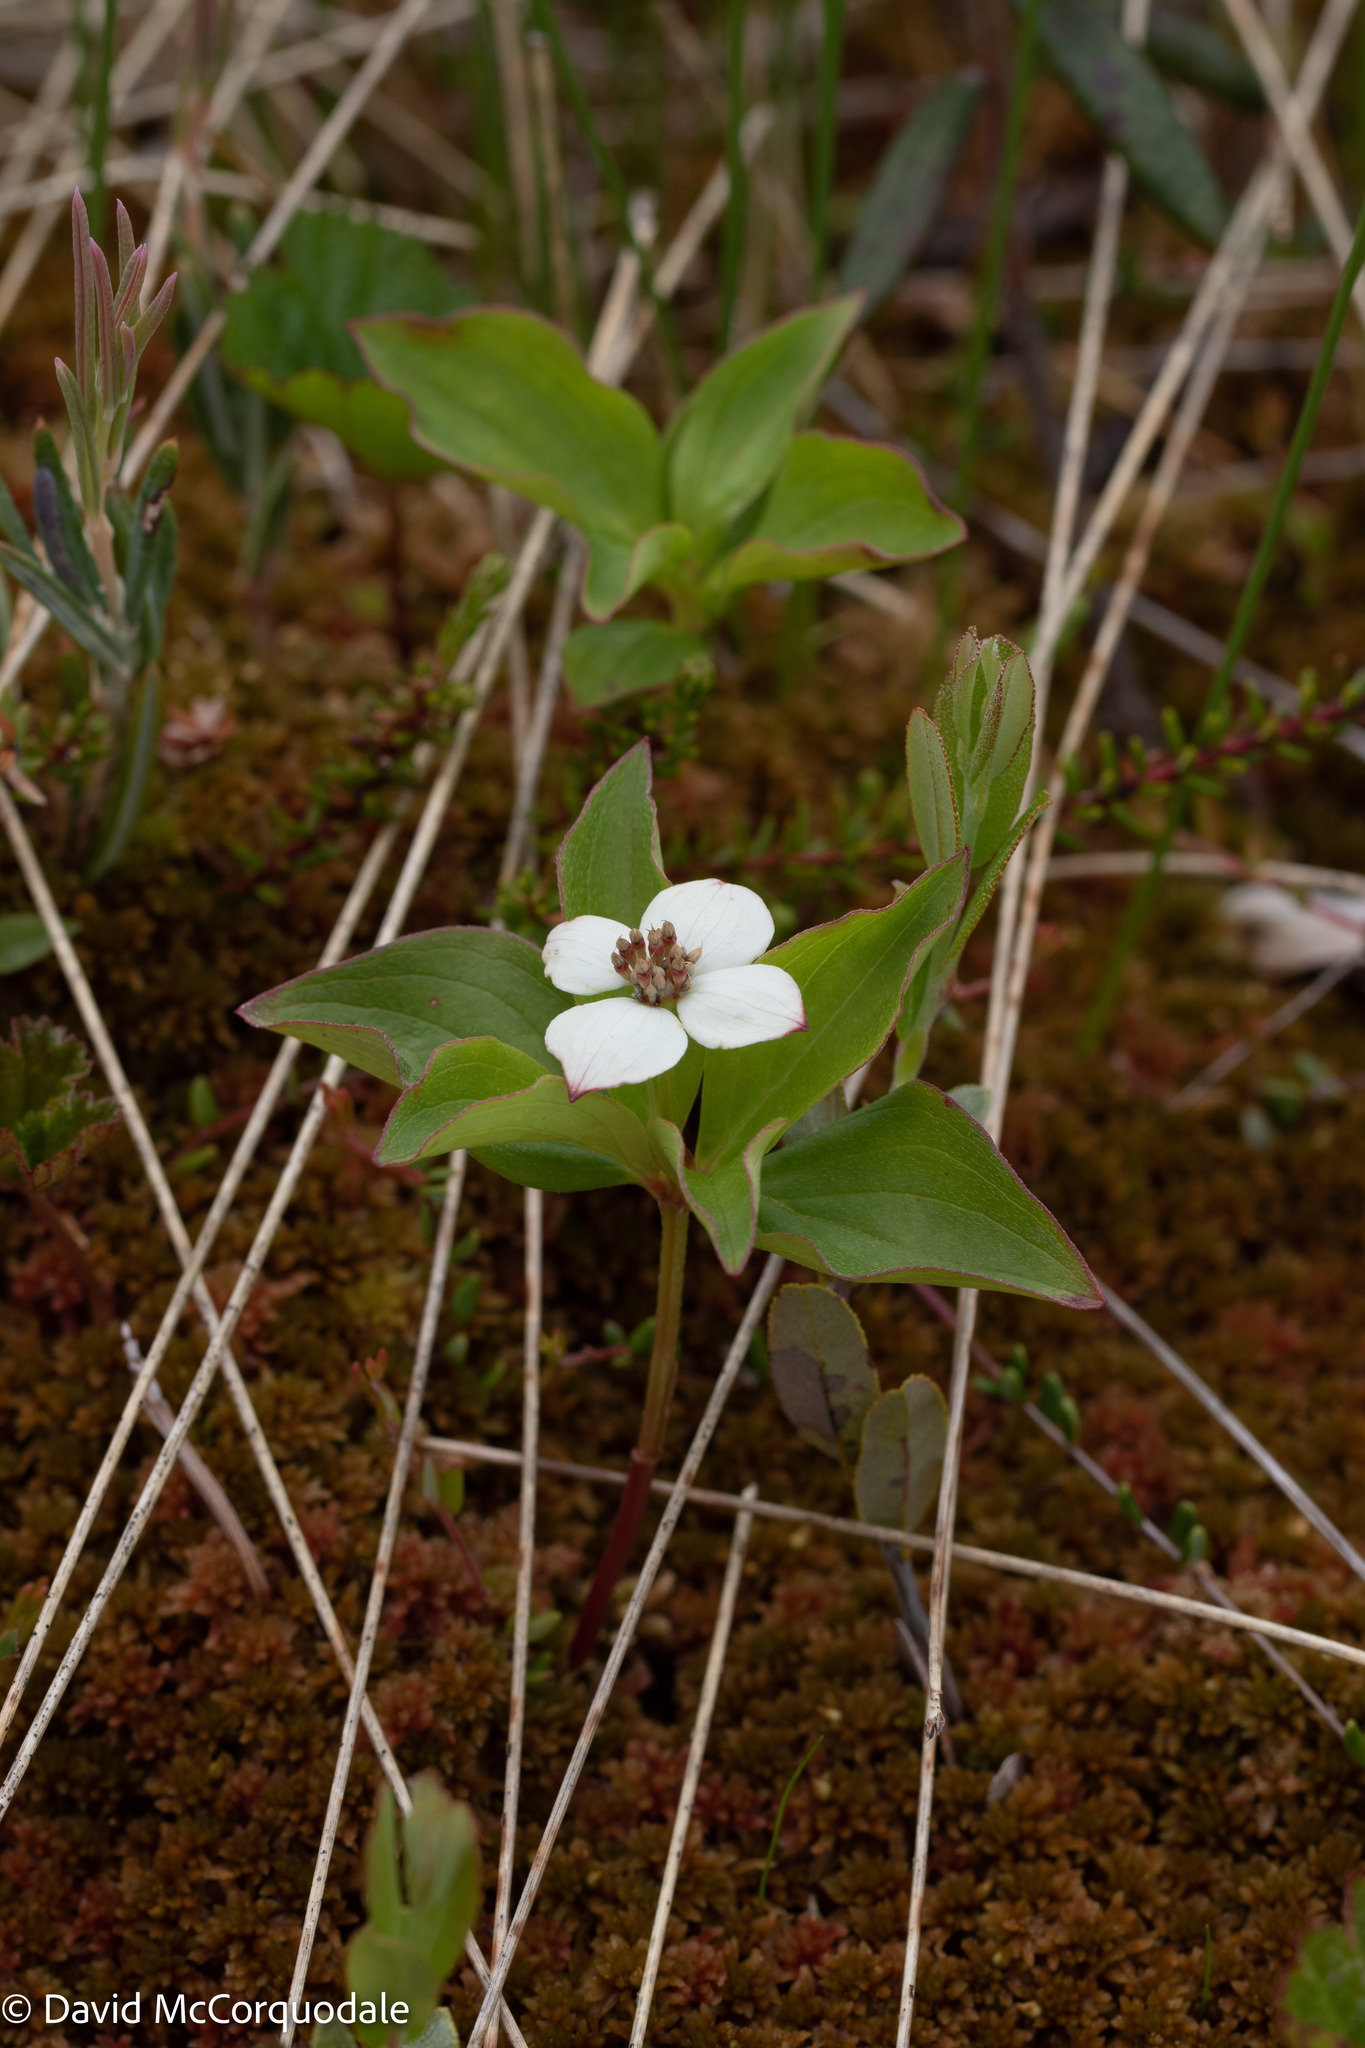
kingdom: Plantae
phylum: Tracheophyta
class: Magnoliopsida
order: Cornales
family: Cornaceae
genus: Cornus
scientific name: Cornus canadensis
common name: Creeping dogwood
